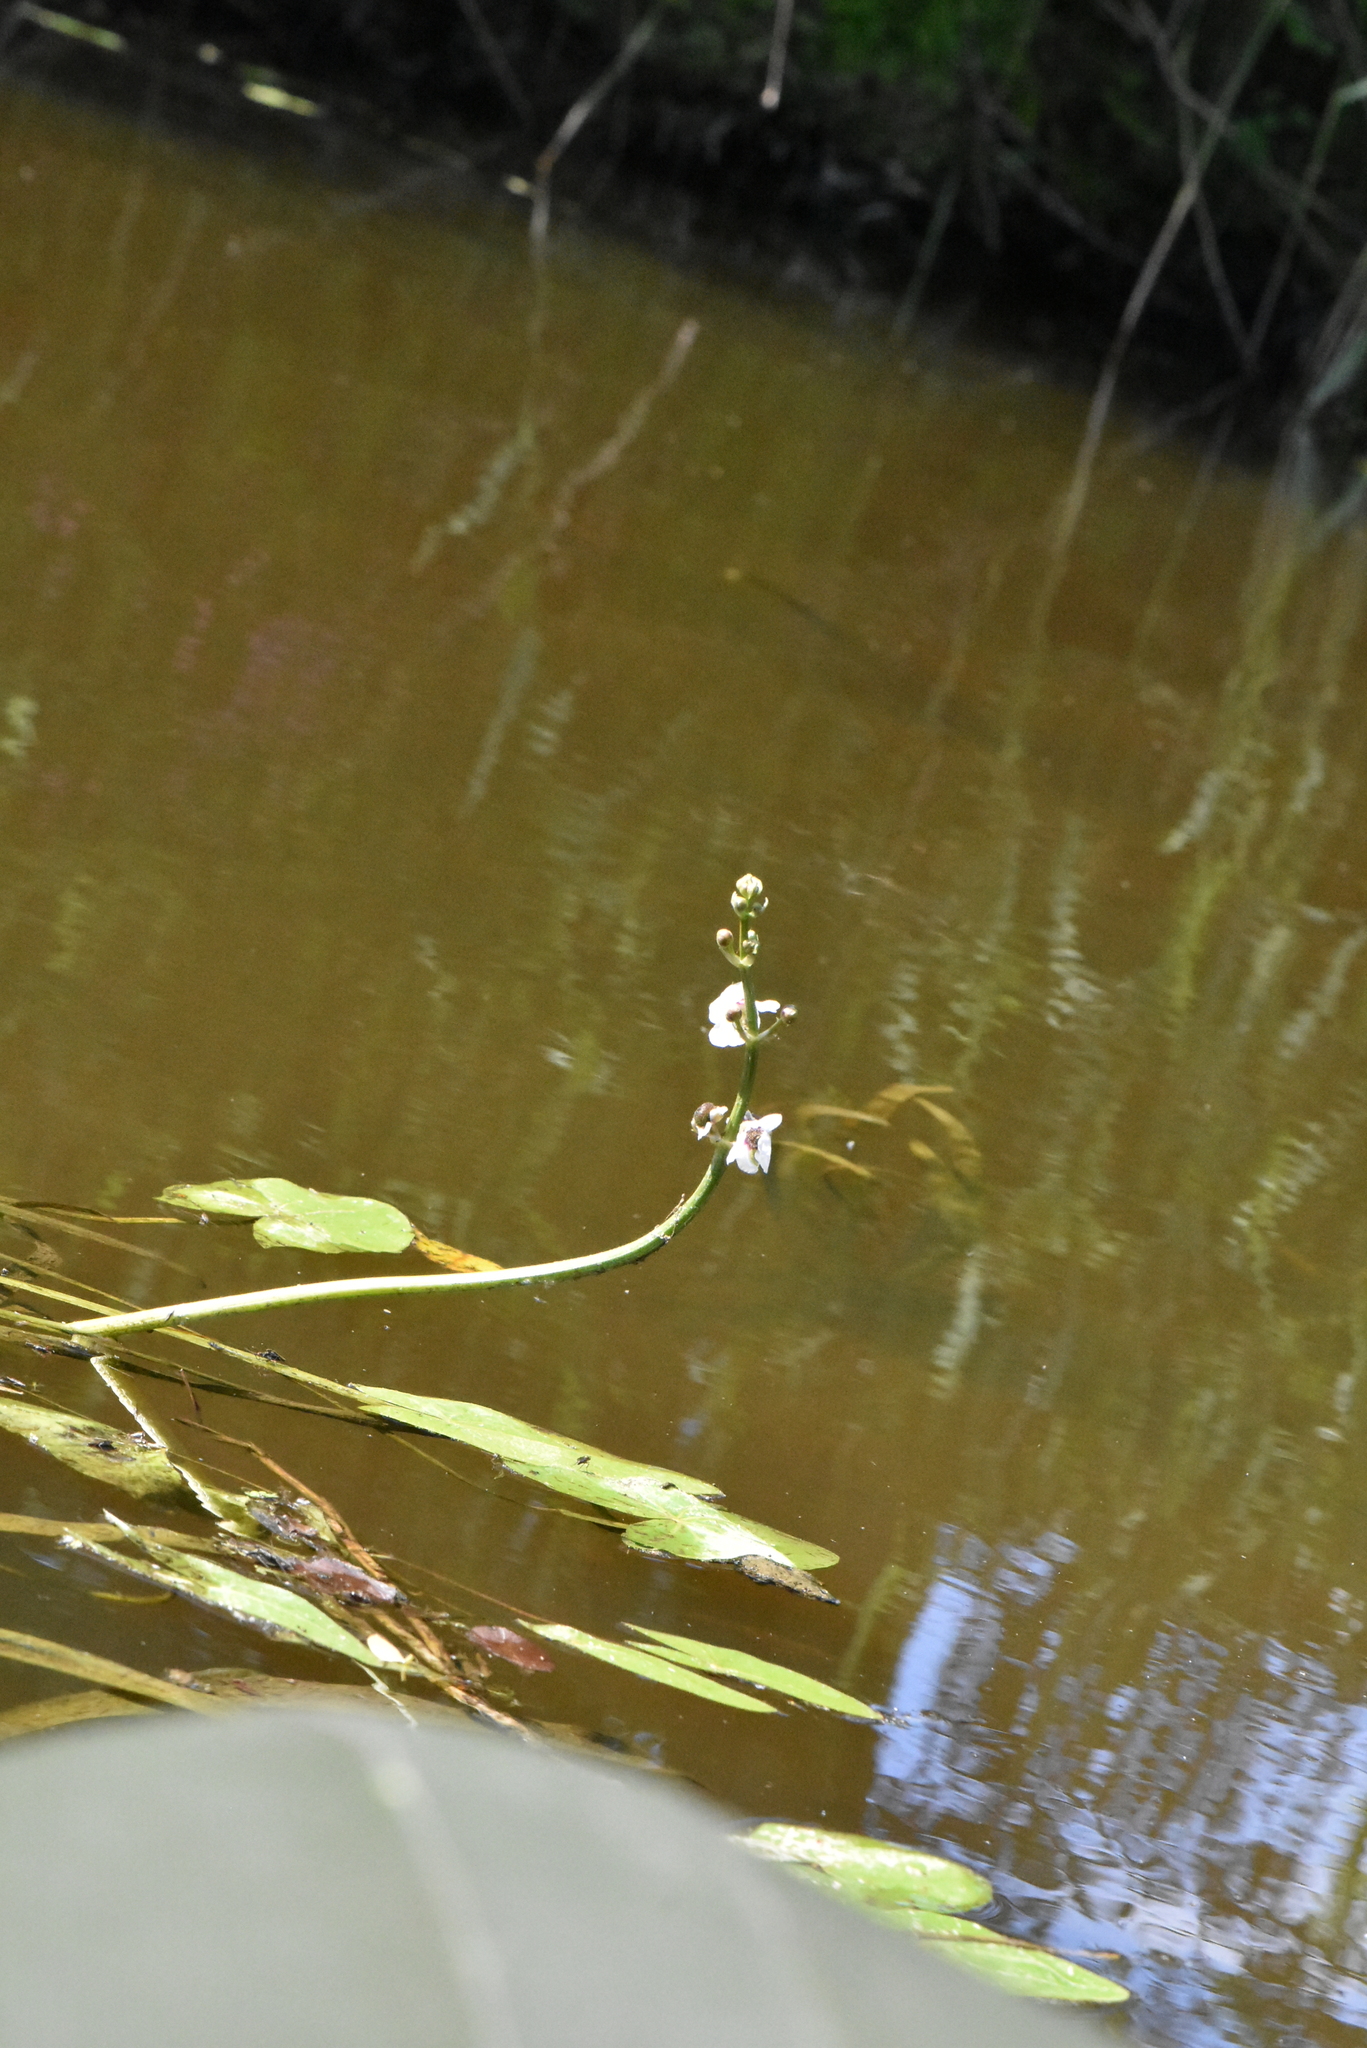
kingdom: Plantae
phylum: Tracheophyta
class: Liliopsida
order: Alismatales
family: Alismataceae
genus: Sagittaria
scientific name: Sagittaria sagittifolia
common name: Arrowhead
